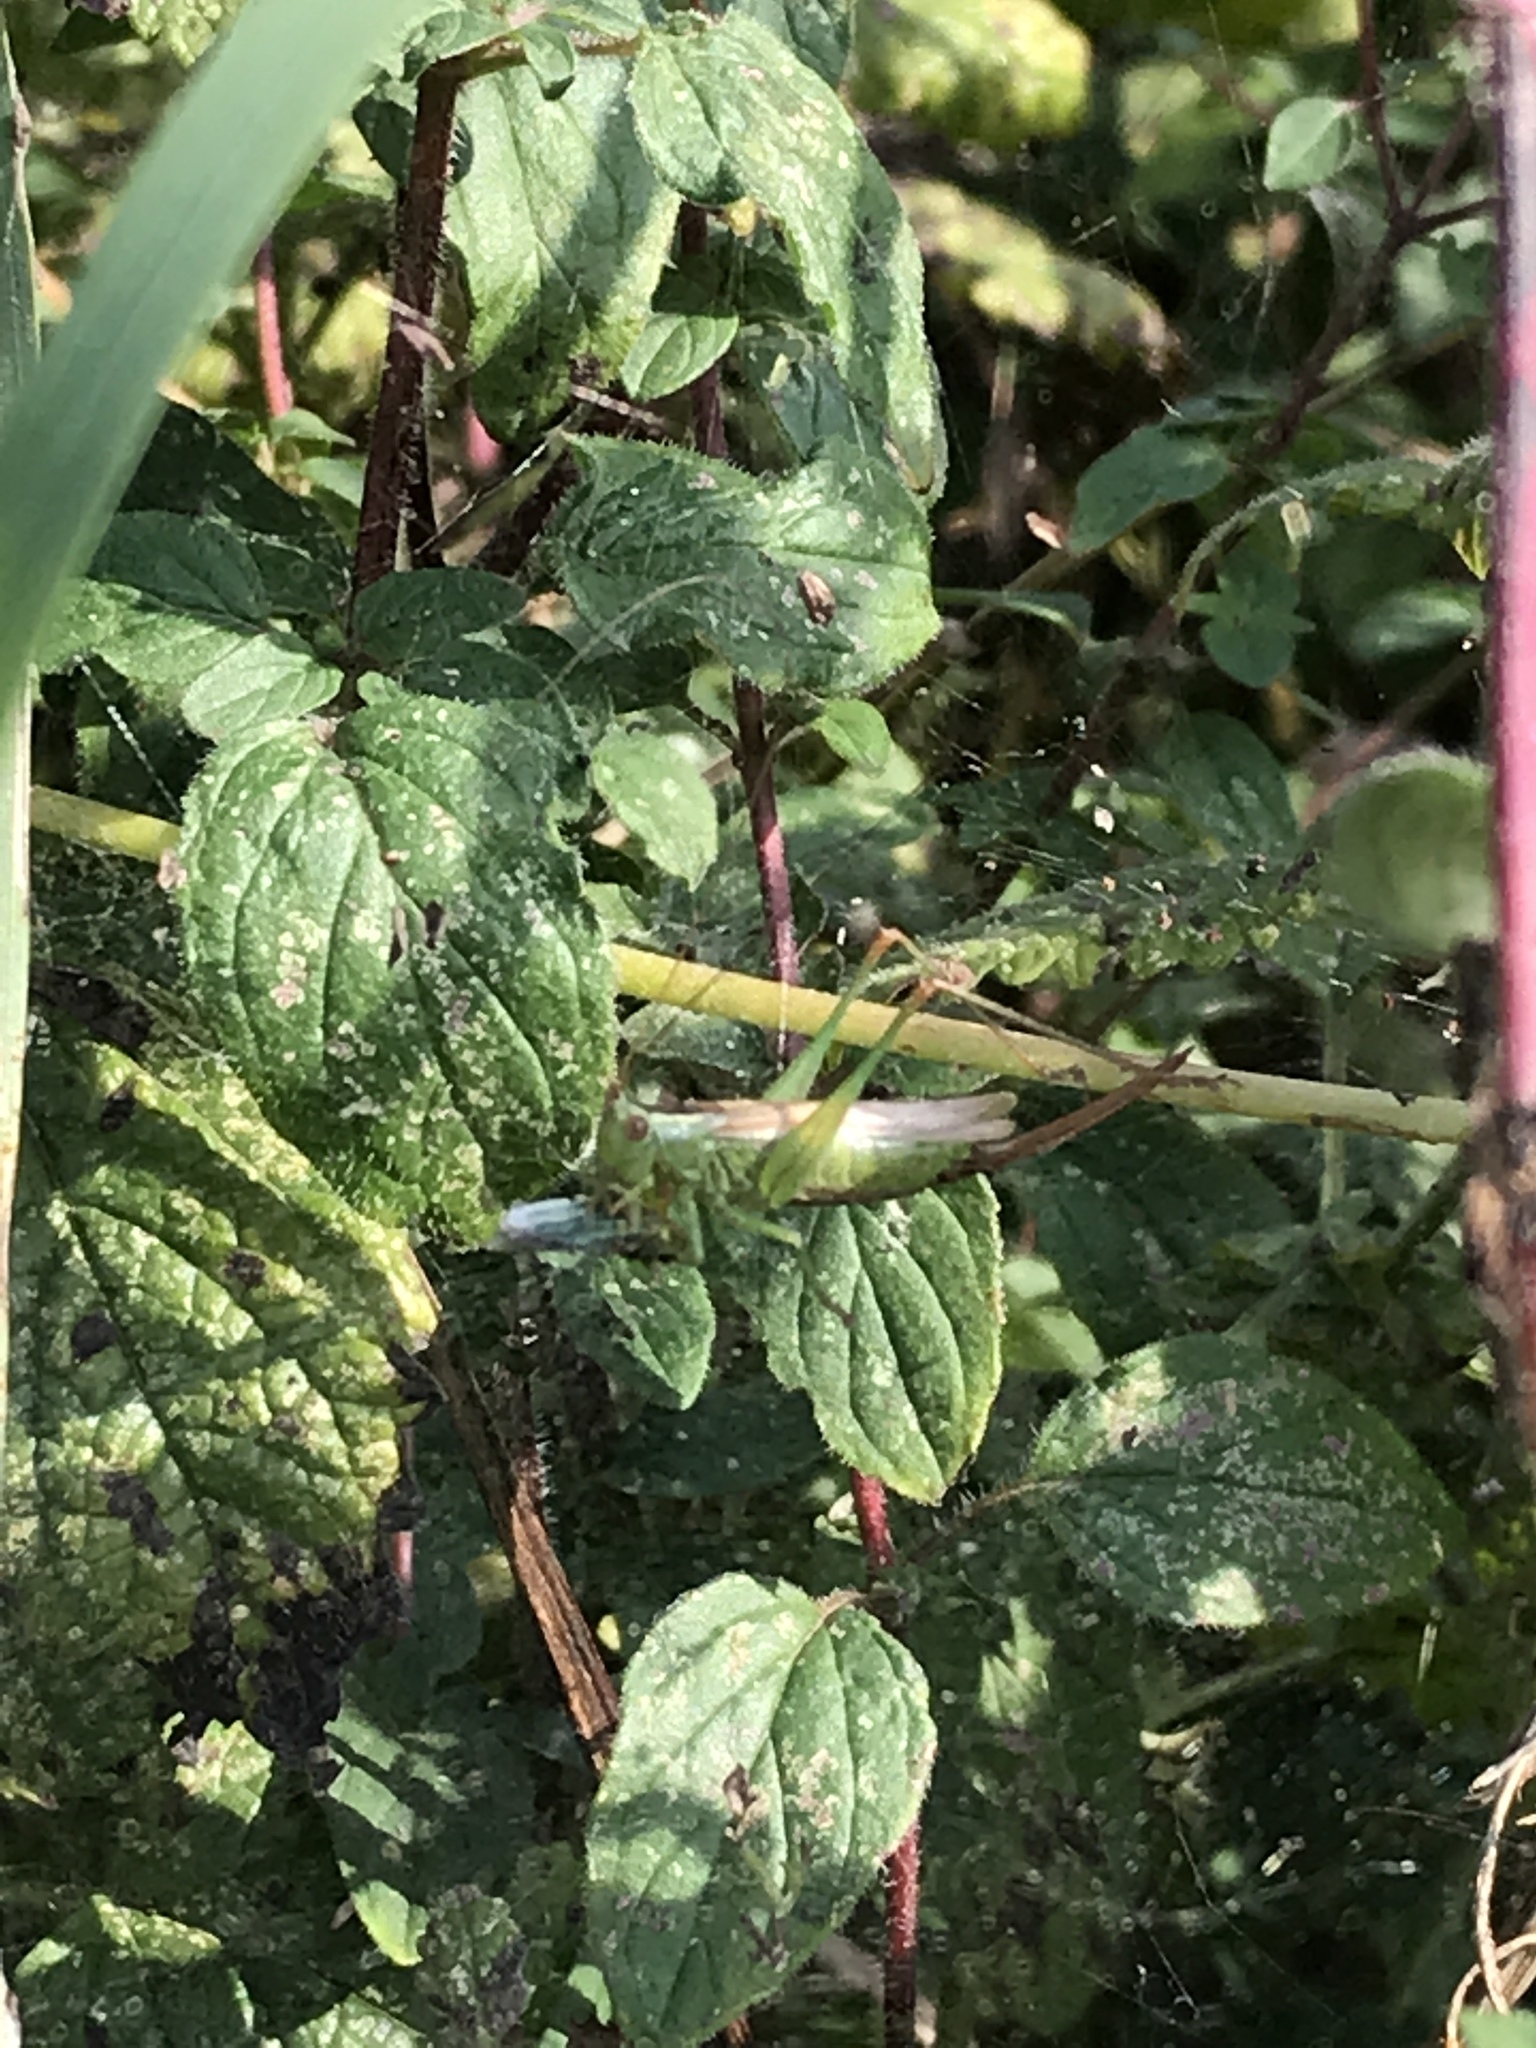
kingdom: Animalia
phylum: Arthropoda
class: Insecta
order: Orthoptera
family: Tettigoniidae
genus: Conocephalus
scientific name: Conocephalus fuscus
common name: Long-winged conehead
